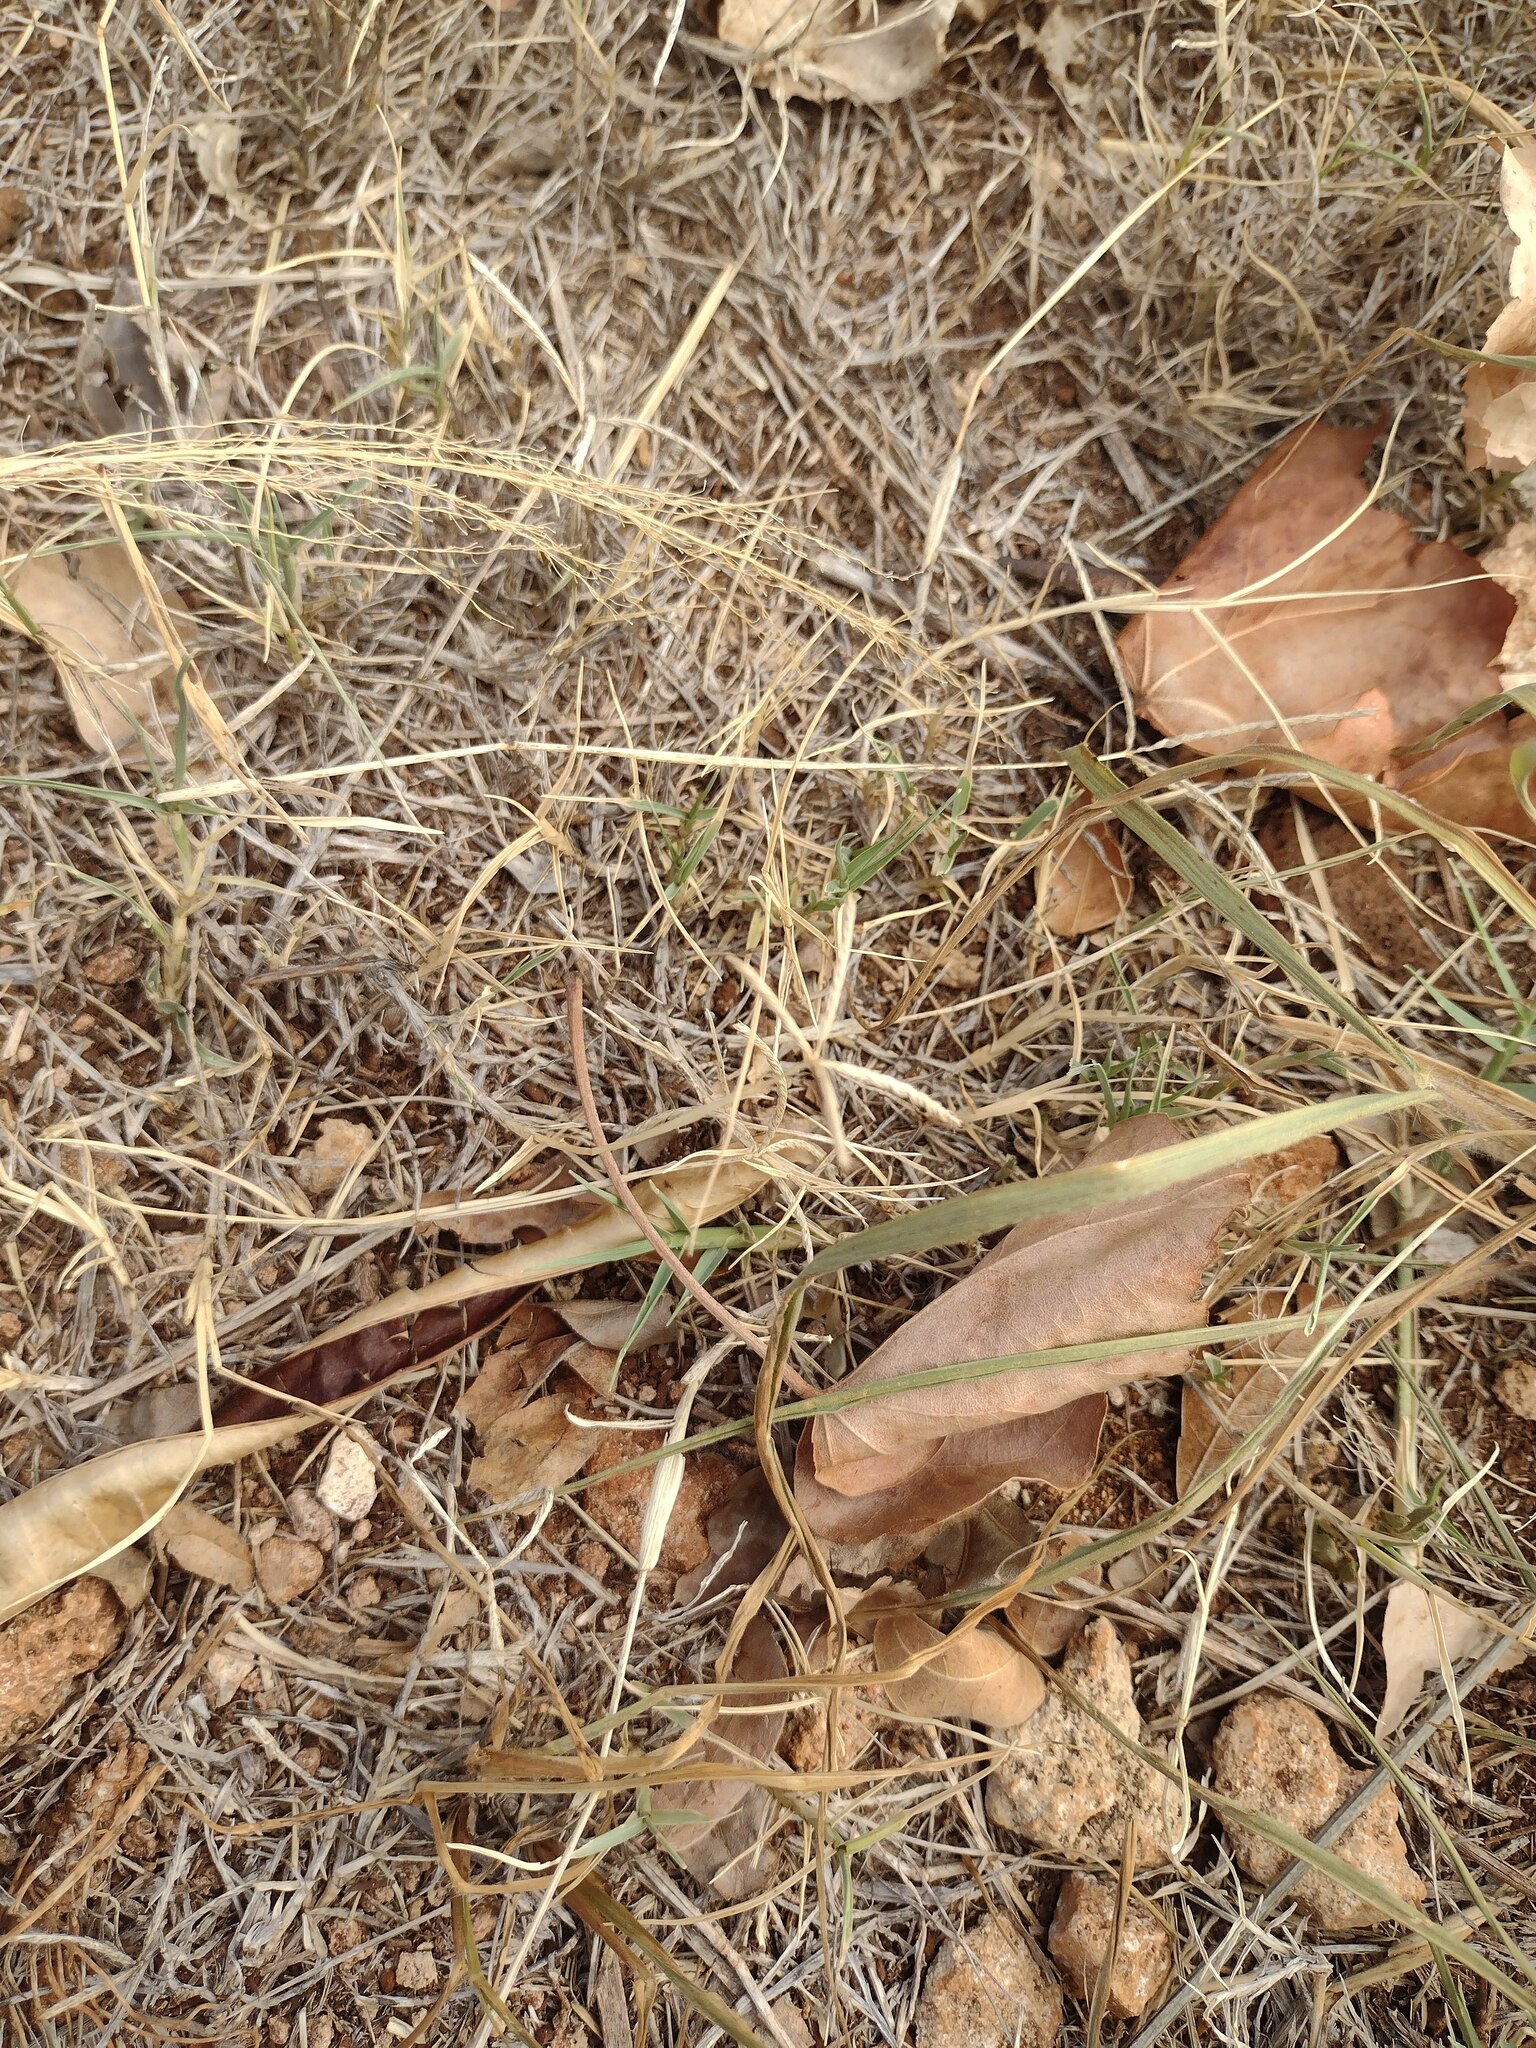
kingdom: Plantae
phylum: Tracheophyta
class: Liliopsida
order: Poales
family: Poaceae
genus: Cynodon
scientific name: Cynodon dactylon
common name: Bermuda grass
